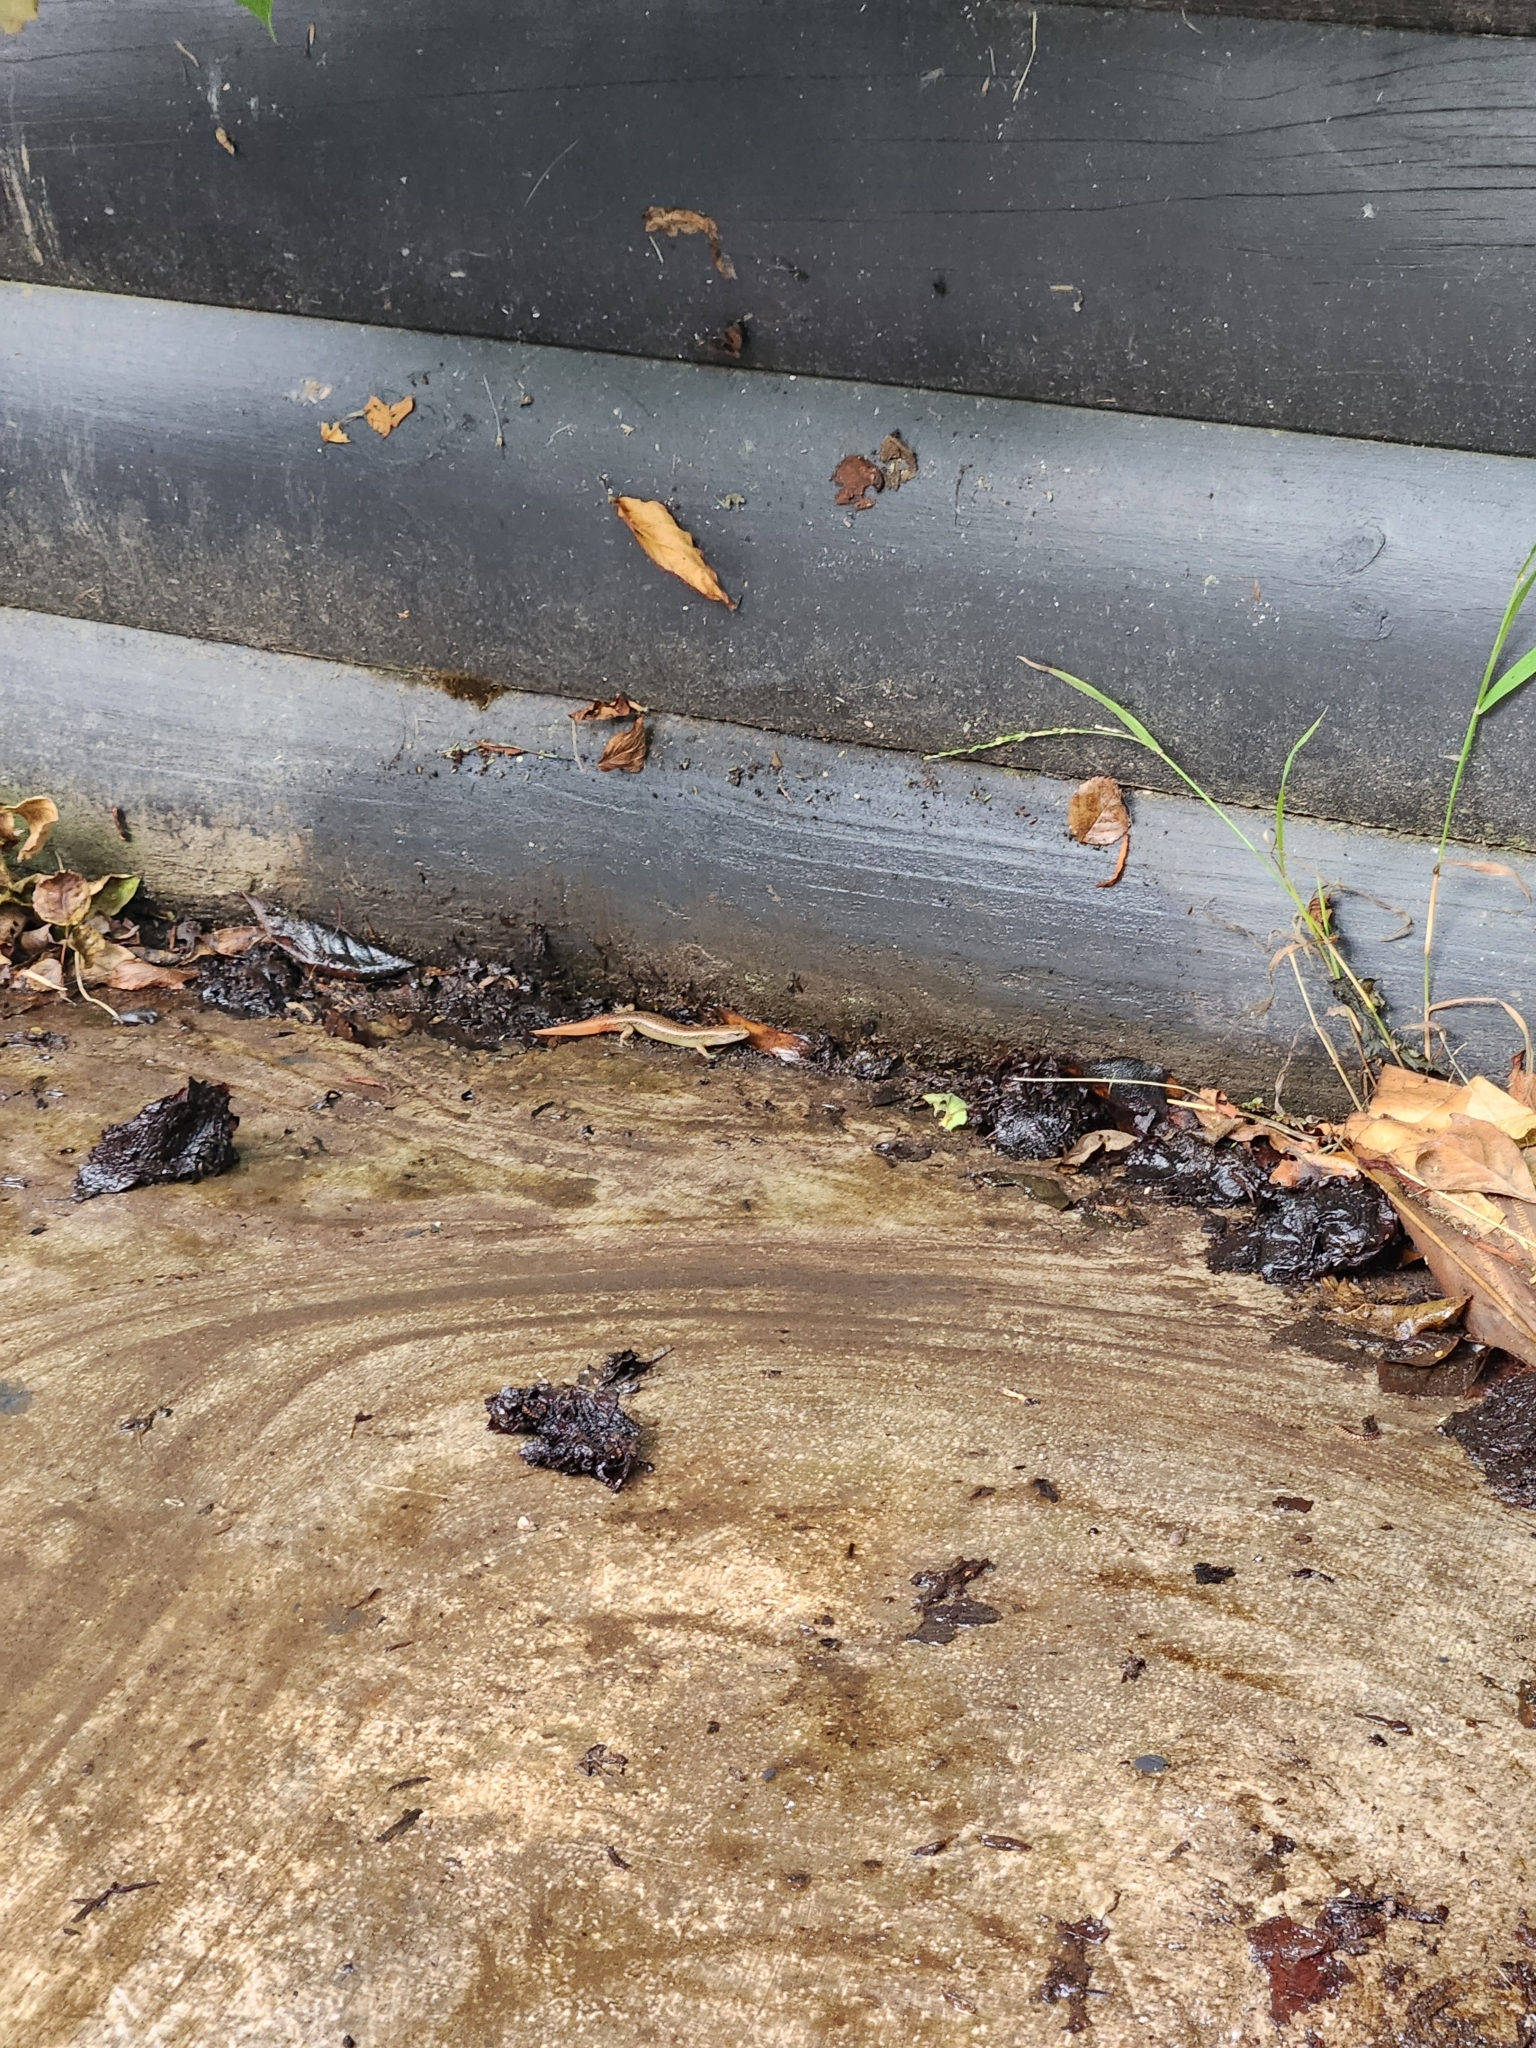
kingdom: Animalia
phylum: Chordata
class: Squamata
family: Scincidae
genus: Oligosoma
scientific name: Oligosoma aeneum
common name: Copper skink
